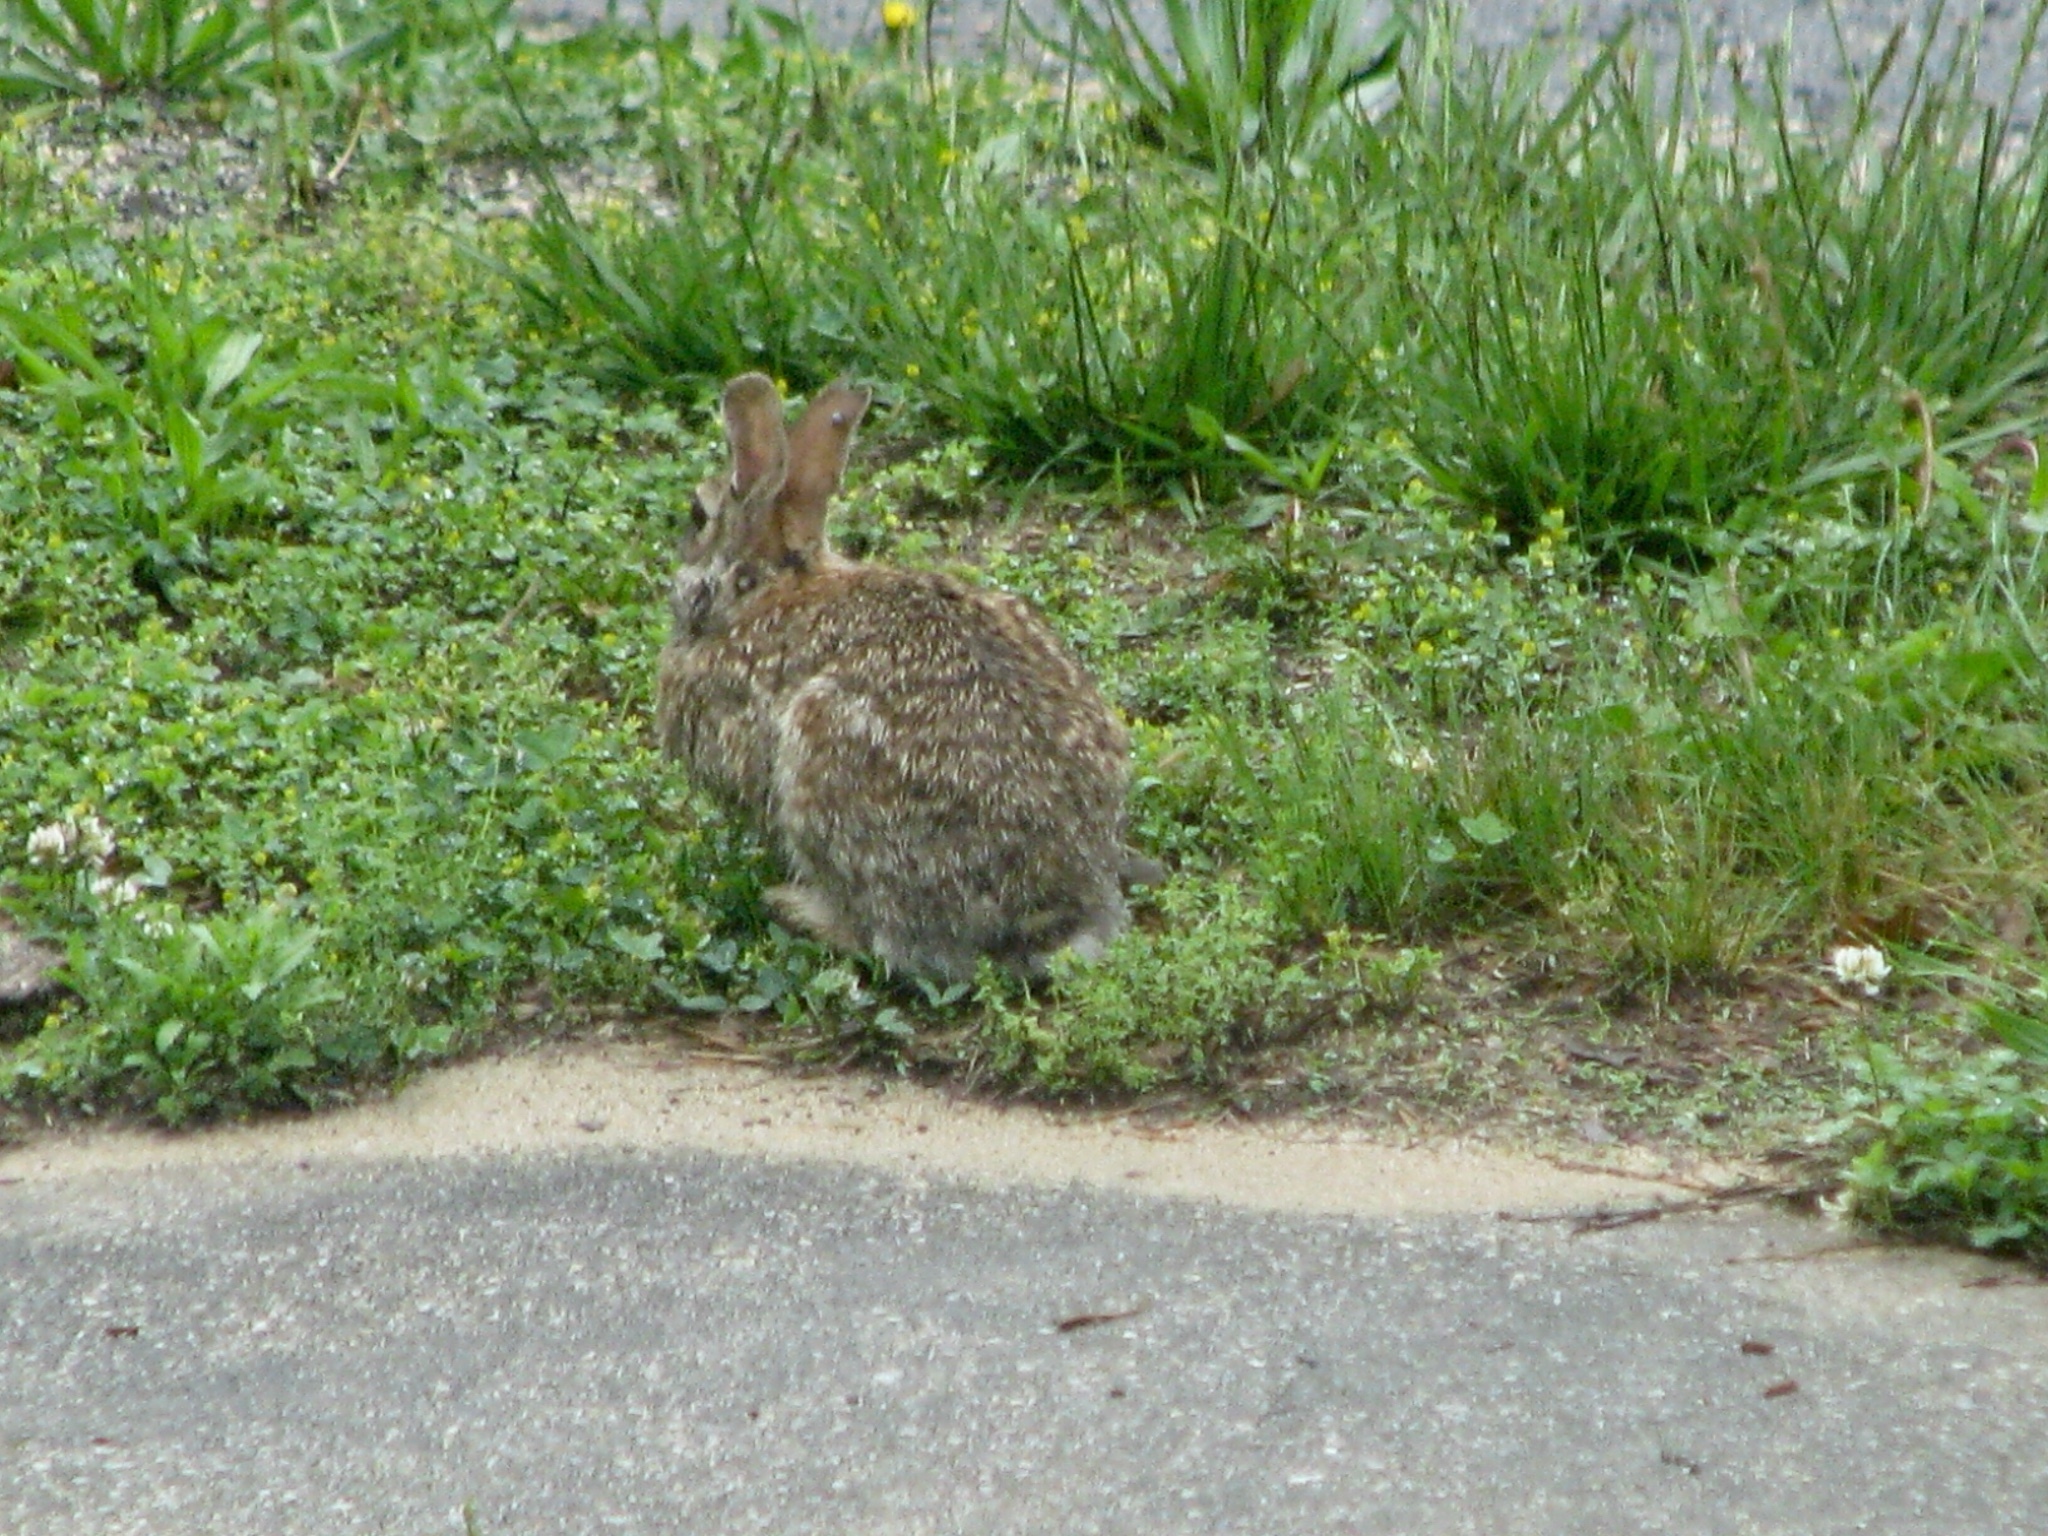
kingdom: Animalia
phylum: Chordata
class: Mammalia
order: Lagomorpha
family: Leporidae
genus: Sylvilagus
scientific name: Sylvilagus floridanus
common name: Eastern cottontail
